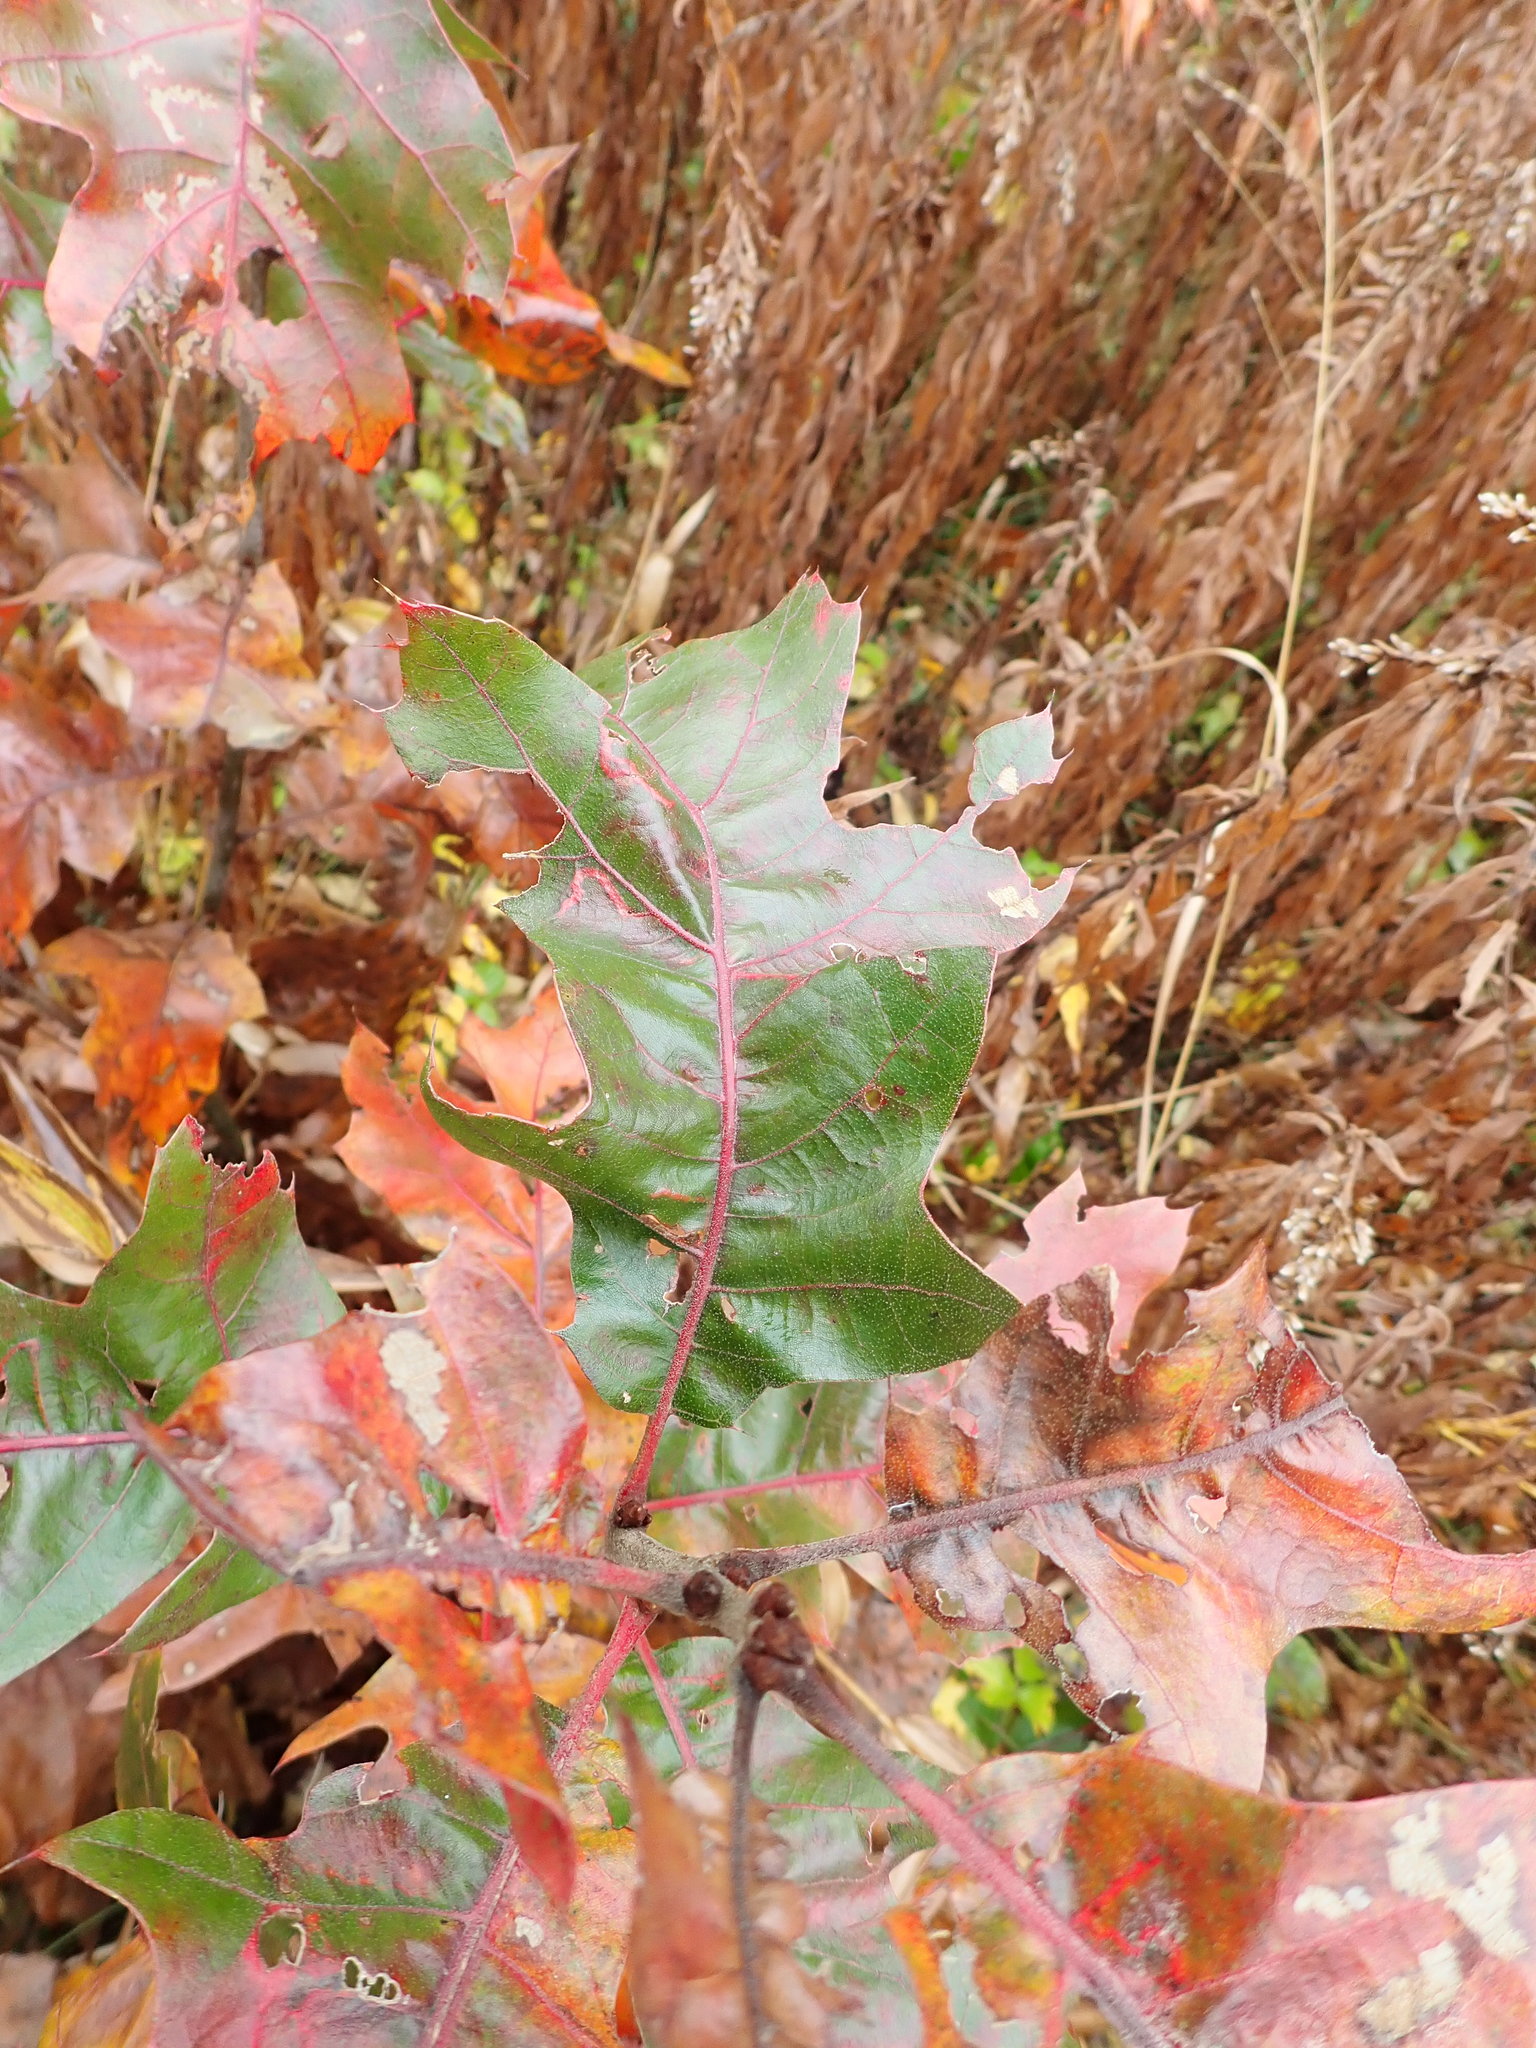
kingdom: Plantae
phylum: Tracheophyta
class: Magnoliopsida
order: Fagales
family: Fagaceae
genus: Quercus
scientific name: Quercus velutina
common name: Black oak
